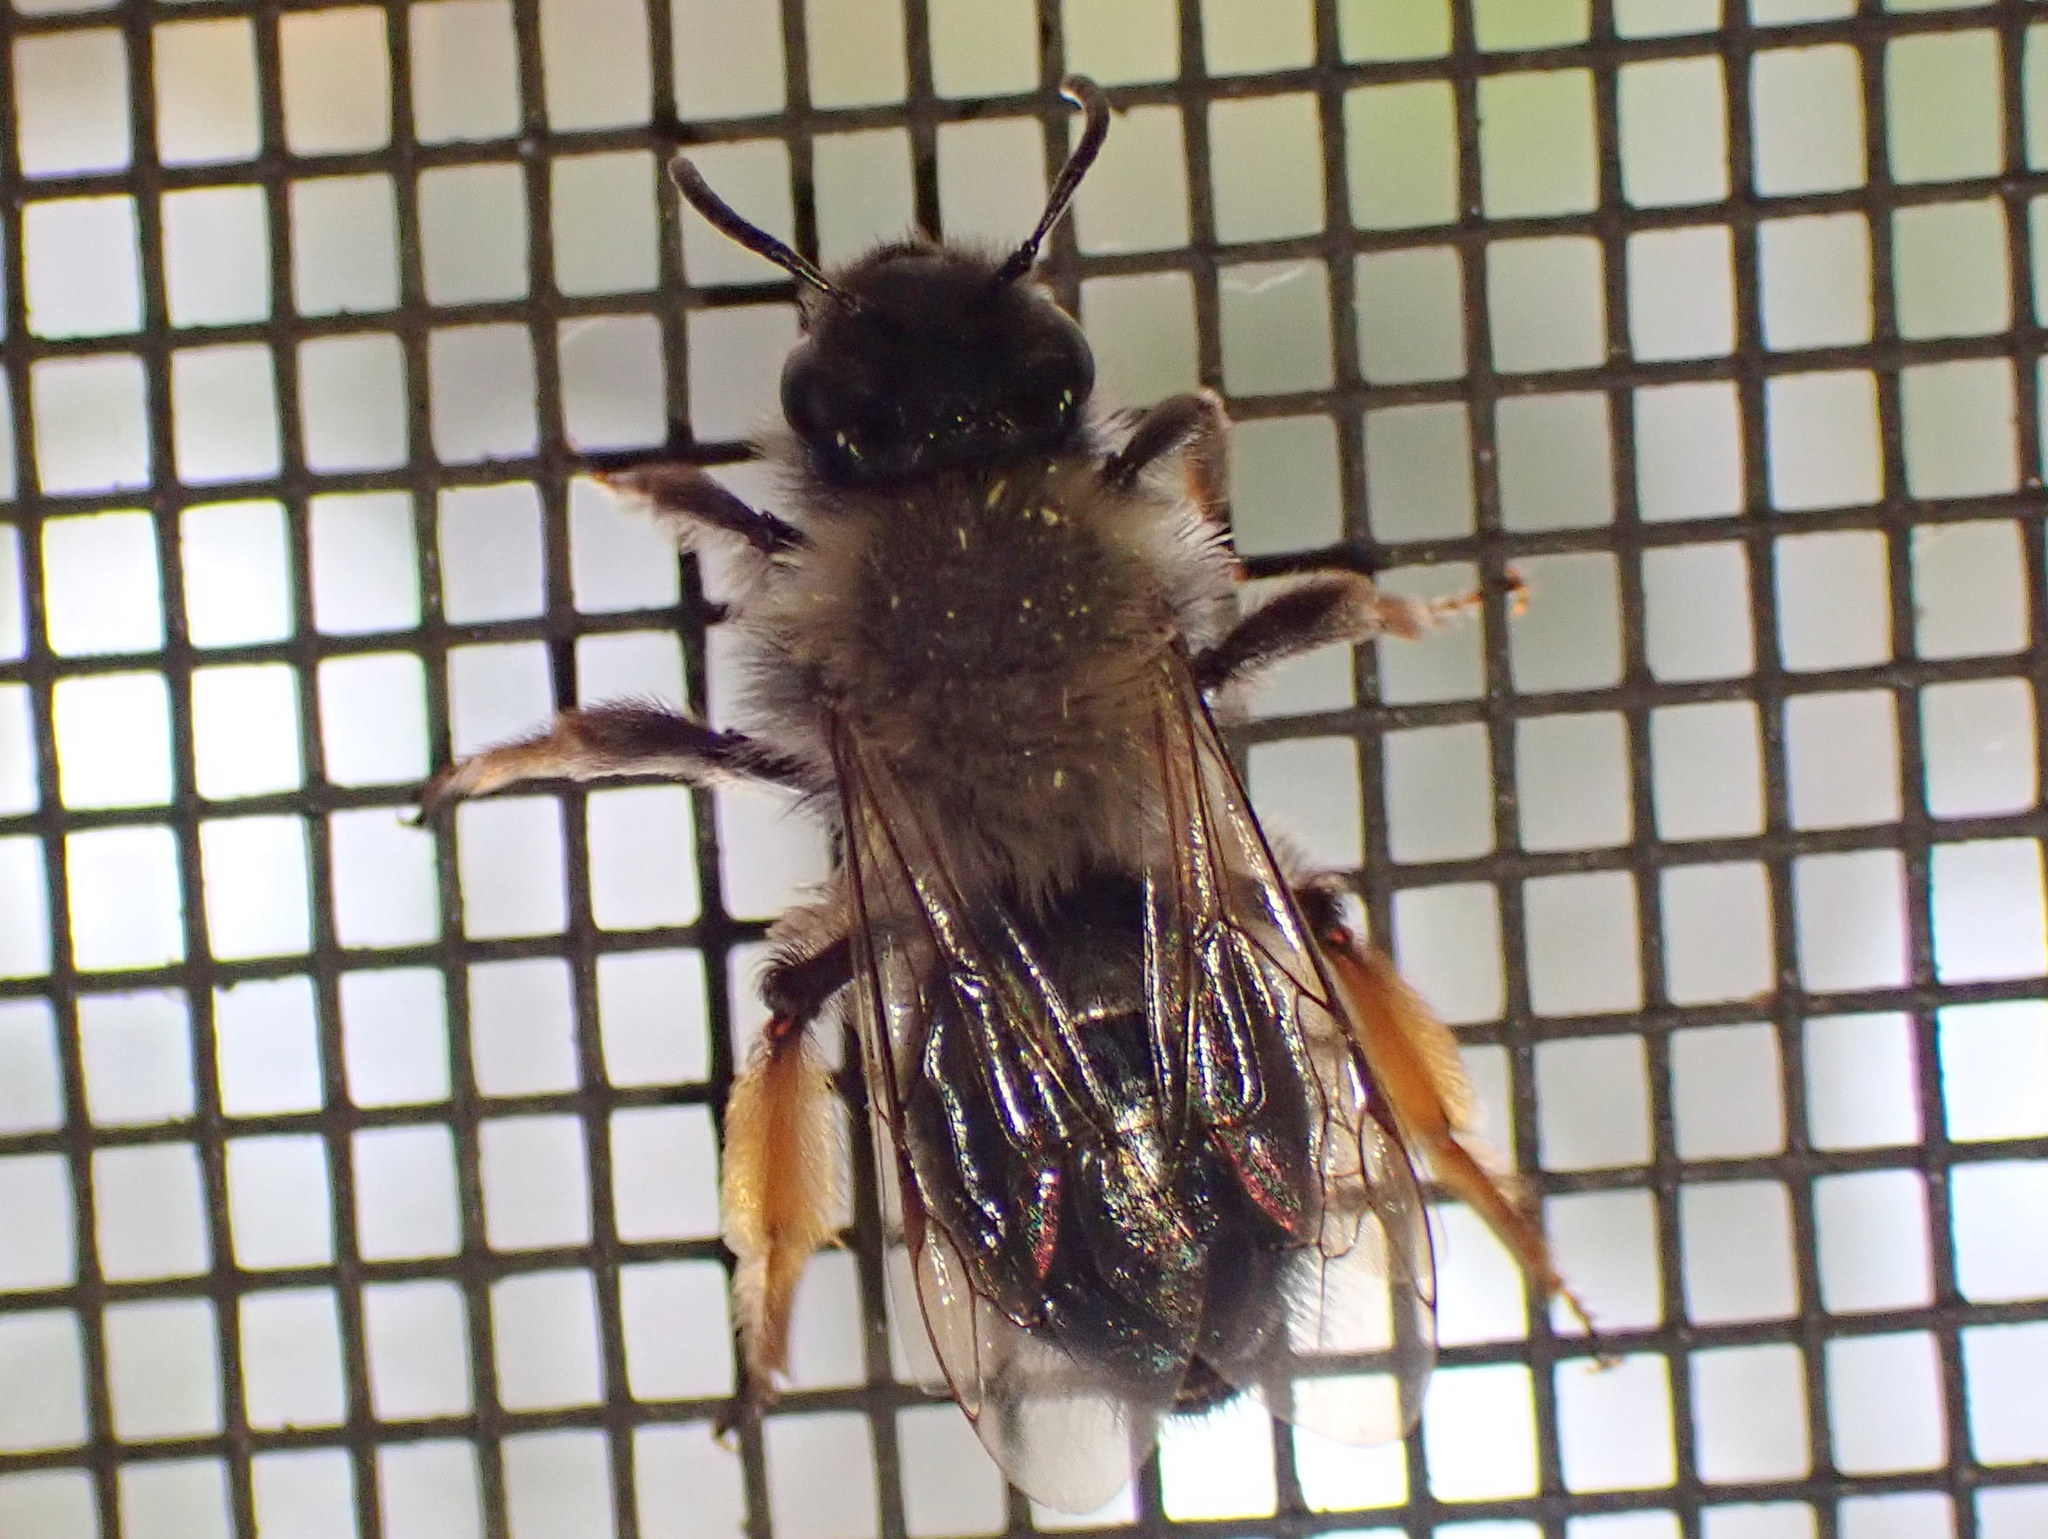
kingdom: Animalia
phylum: Arthropoda
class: Insecta
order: Hymenoptera
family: Andrenidae
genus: Andrena
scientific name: Andrena clarkella
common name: Clarke's mining bee
